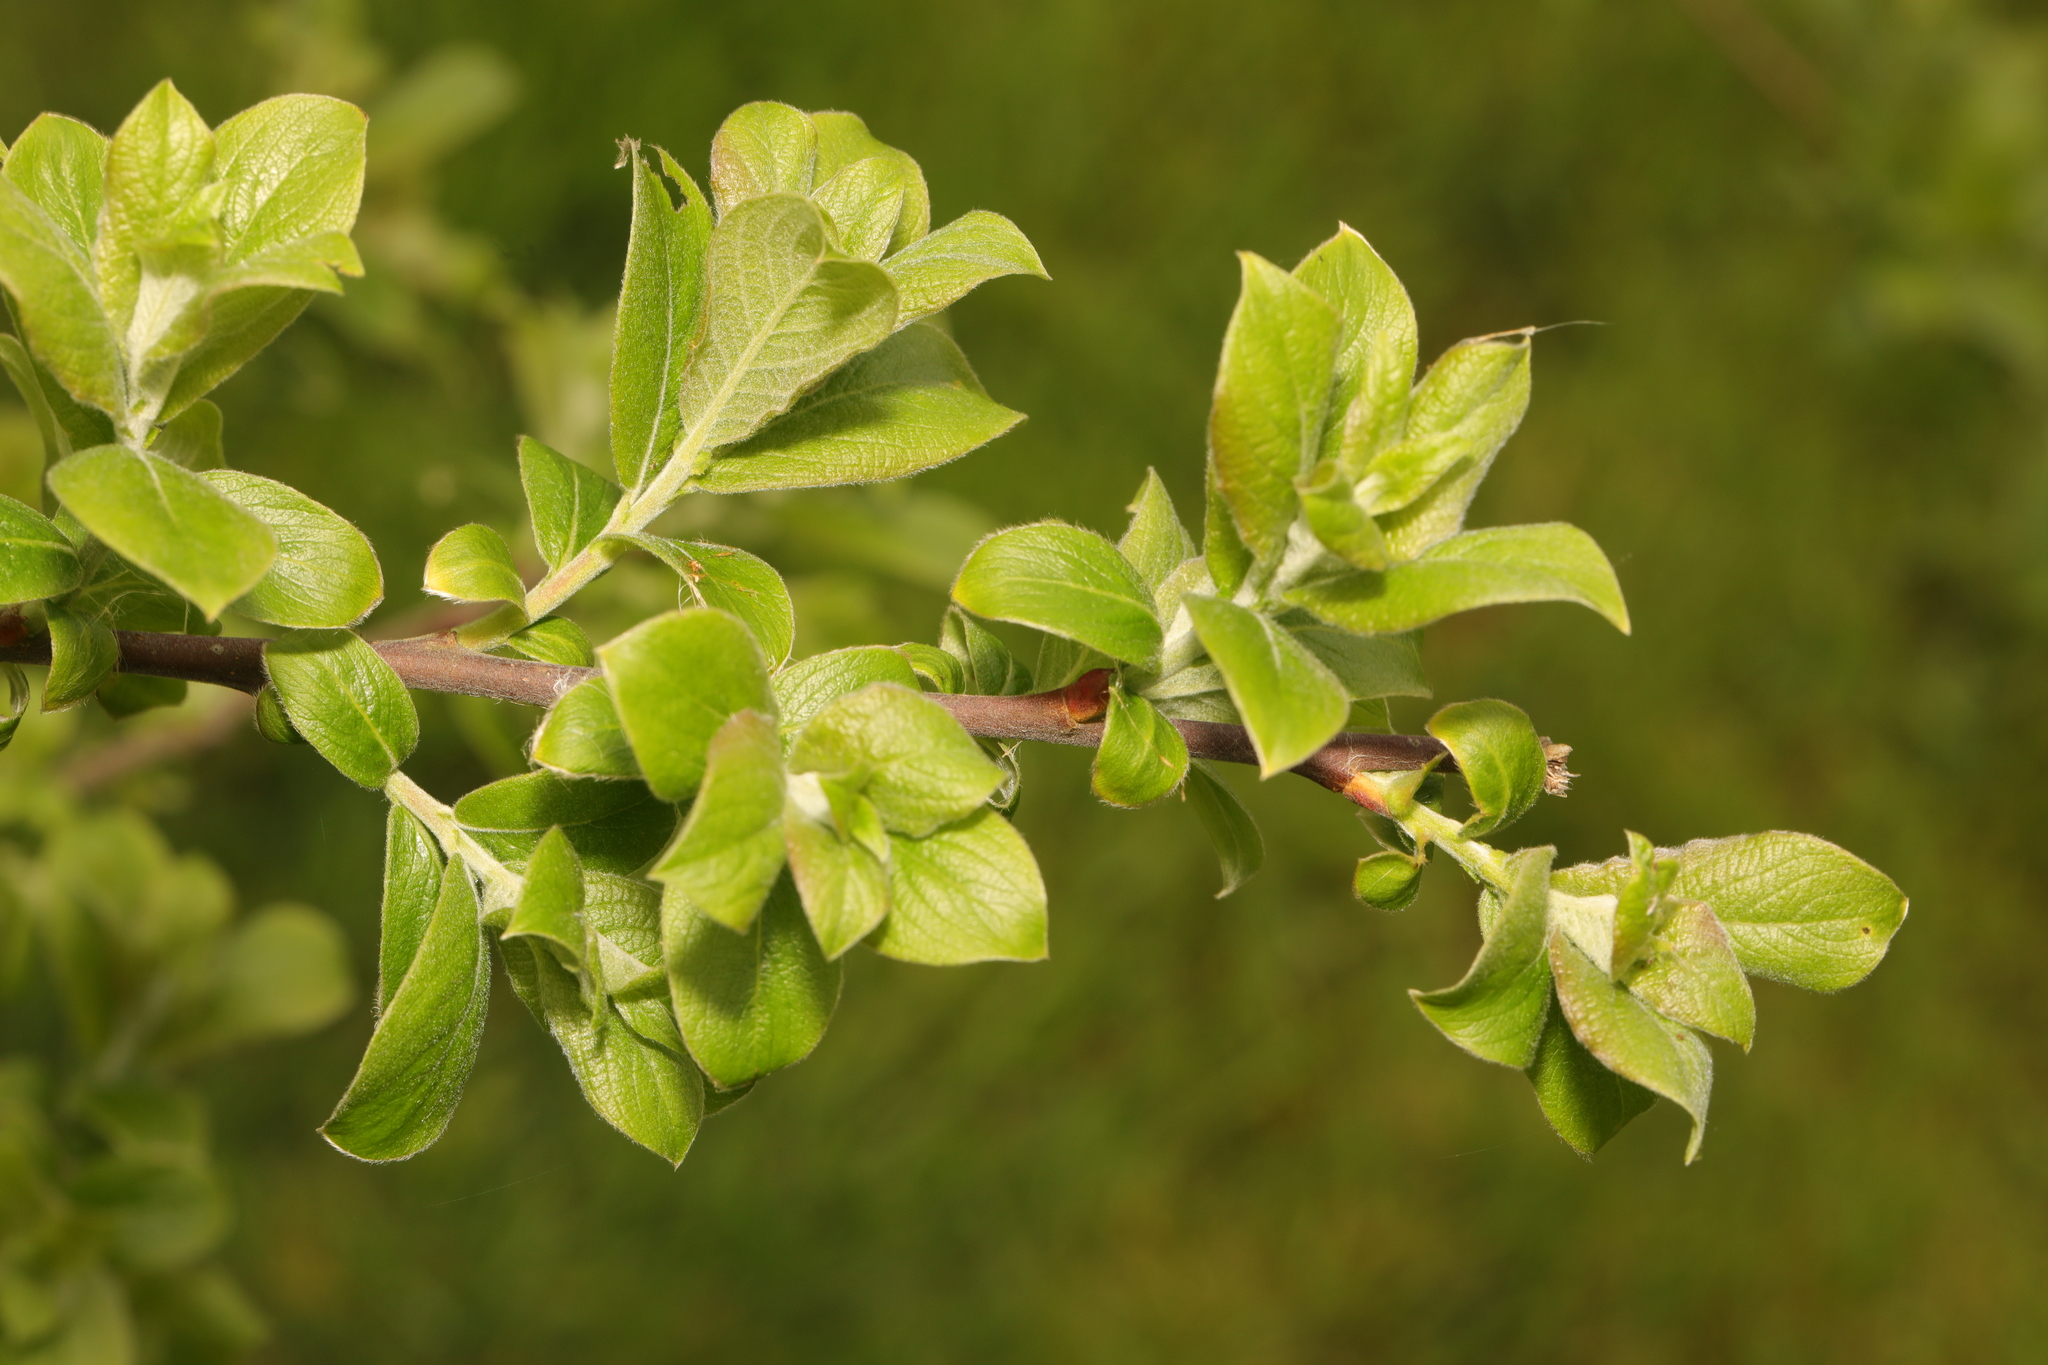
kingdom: Plantae
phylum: Tracheophyta
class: Magnoliopsida
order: Malpighiales
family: Salicaceae
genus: Salix
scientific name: Salix cinerea
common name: Common sallow
